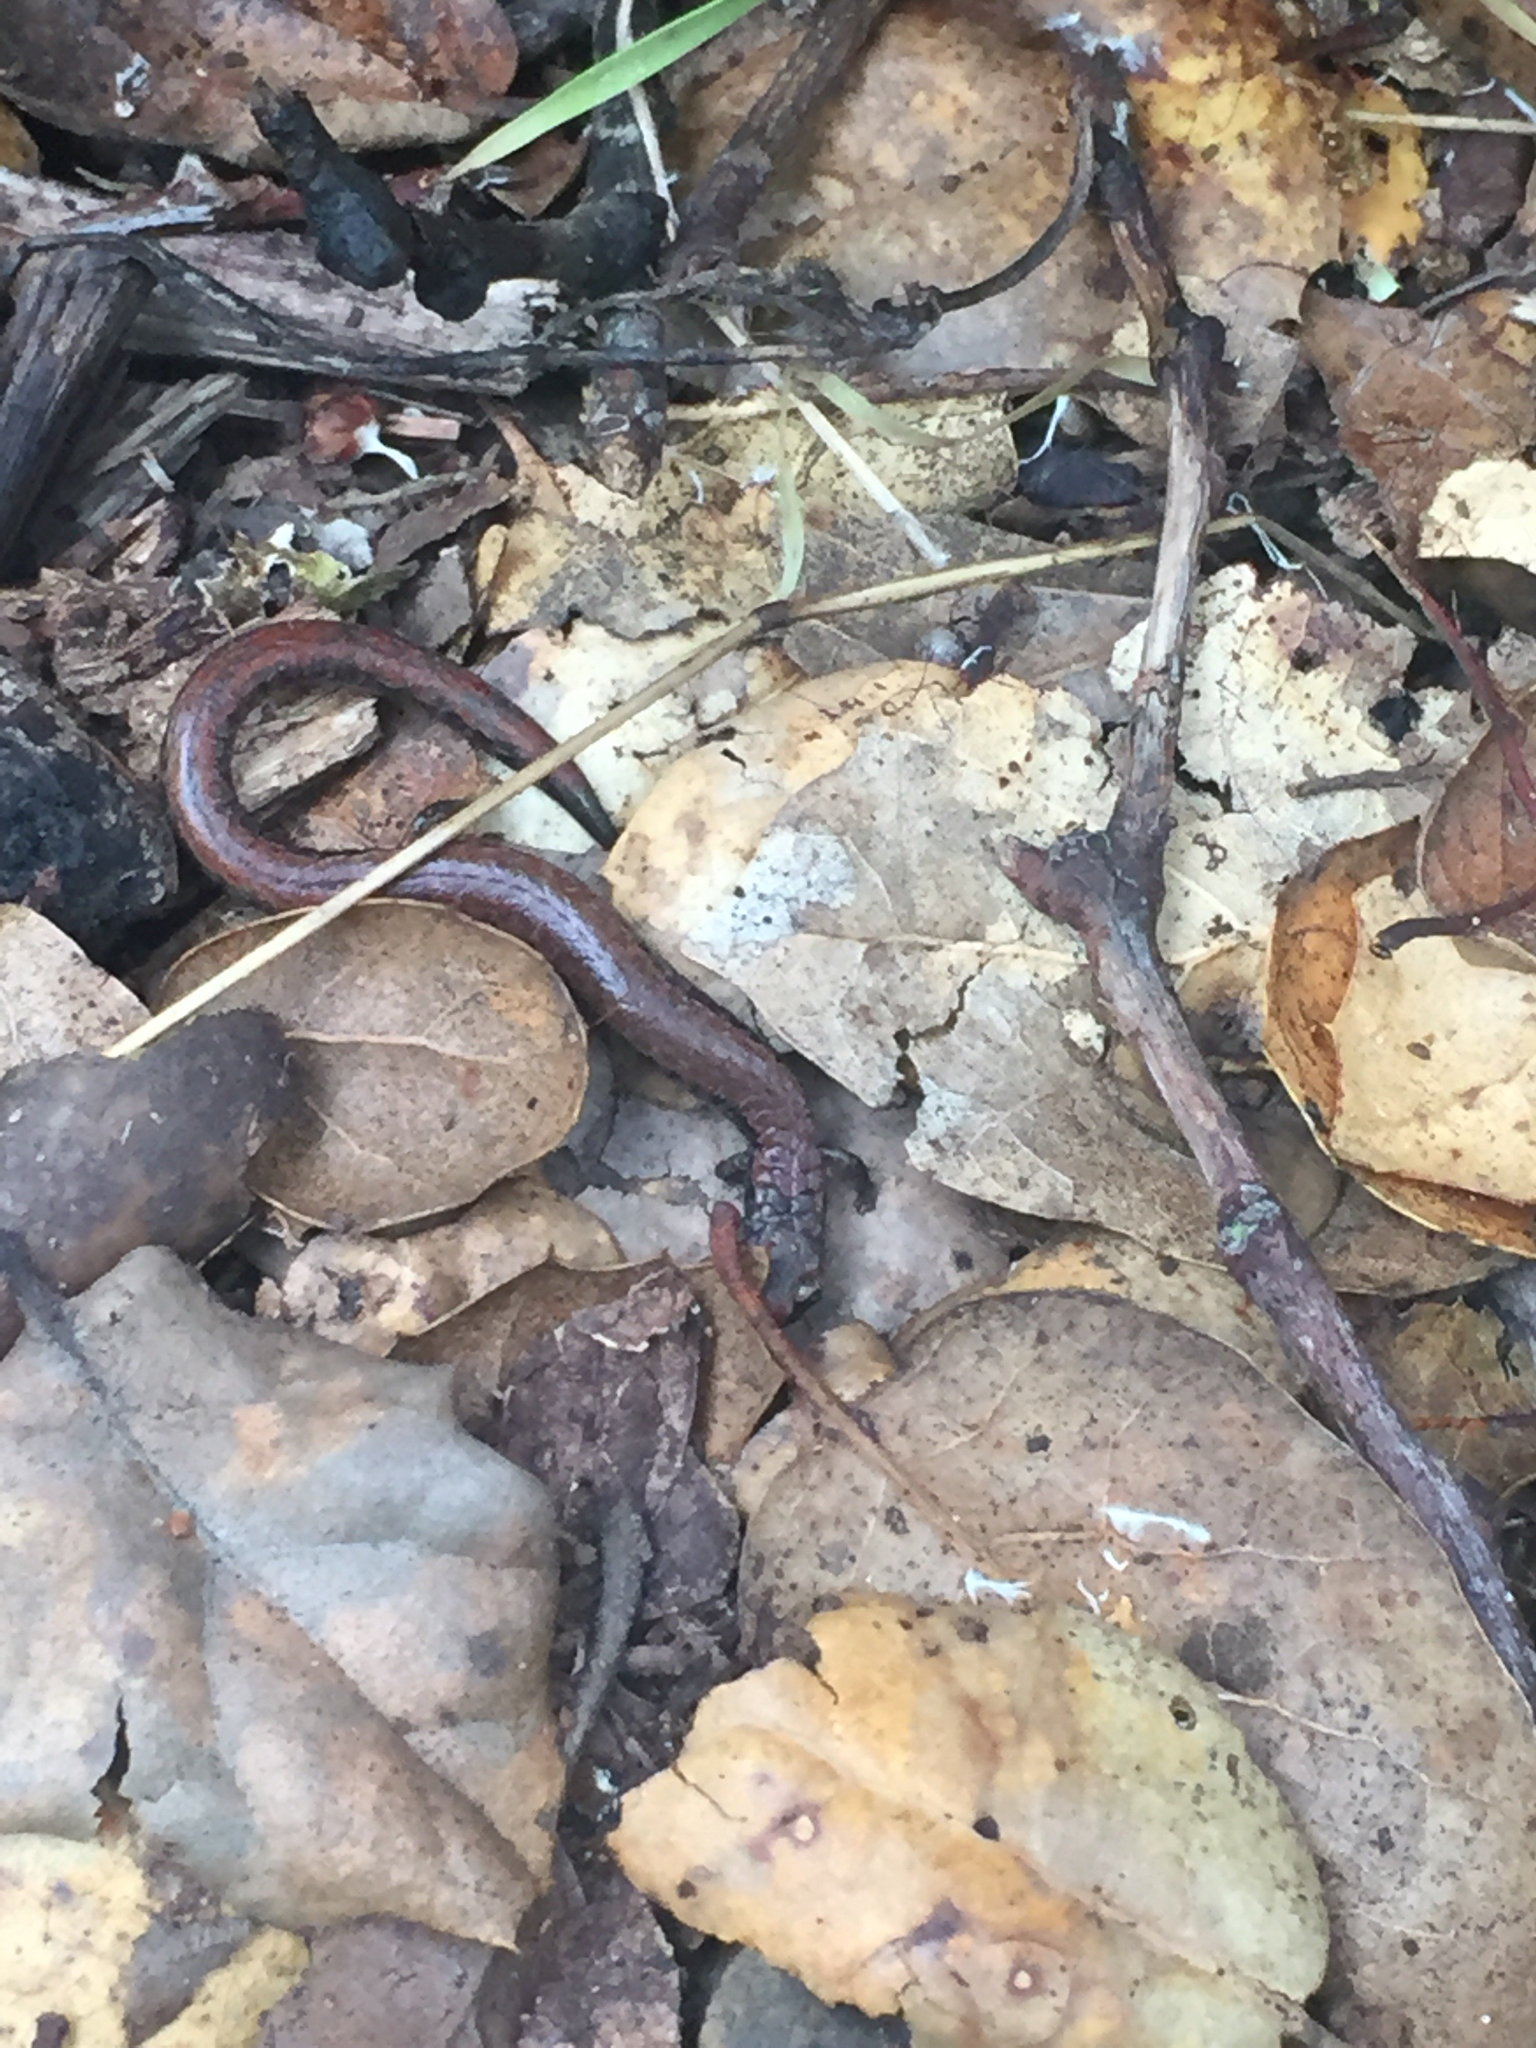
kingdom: Animalia
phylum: Chordata
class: Amphibia
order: Caudata
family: Plethodontidae
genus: Batrachoseps
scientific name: Batrachoseps attenuatus
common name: California slender salamander
